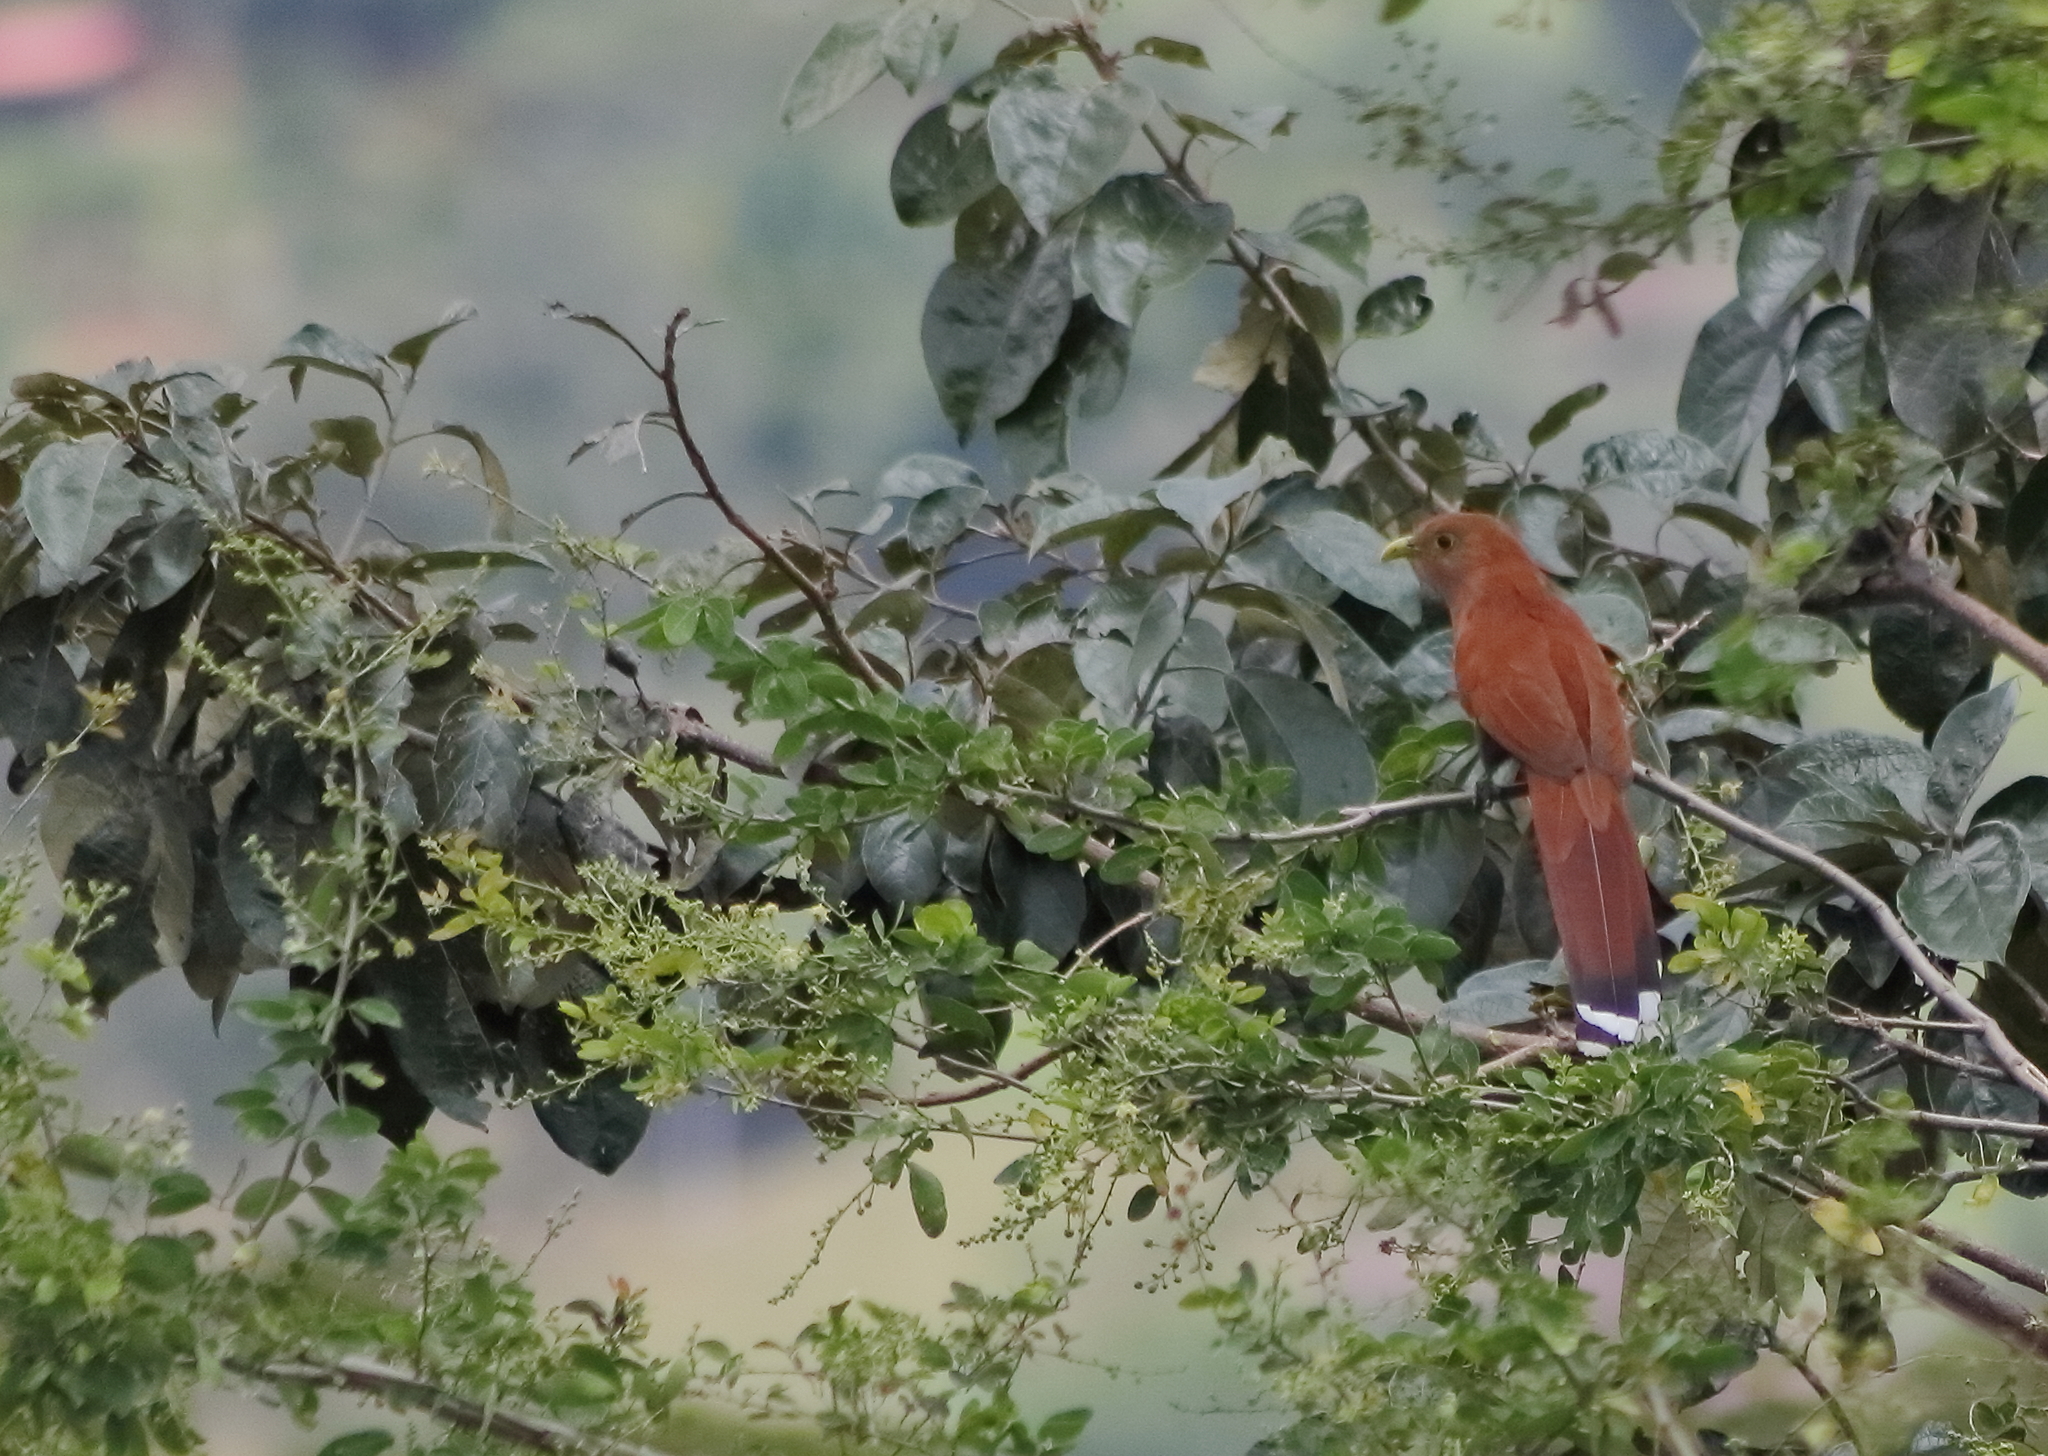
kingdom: Animalia
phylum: Chordata
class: Aves
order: Cuculiformes
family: Cuculidae
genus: Piaya
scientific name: Piaya cayana
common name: Squirrel cuckoo
